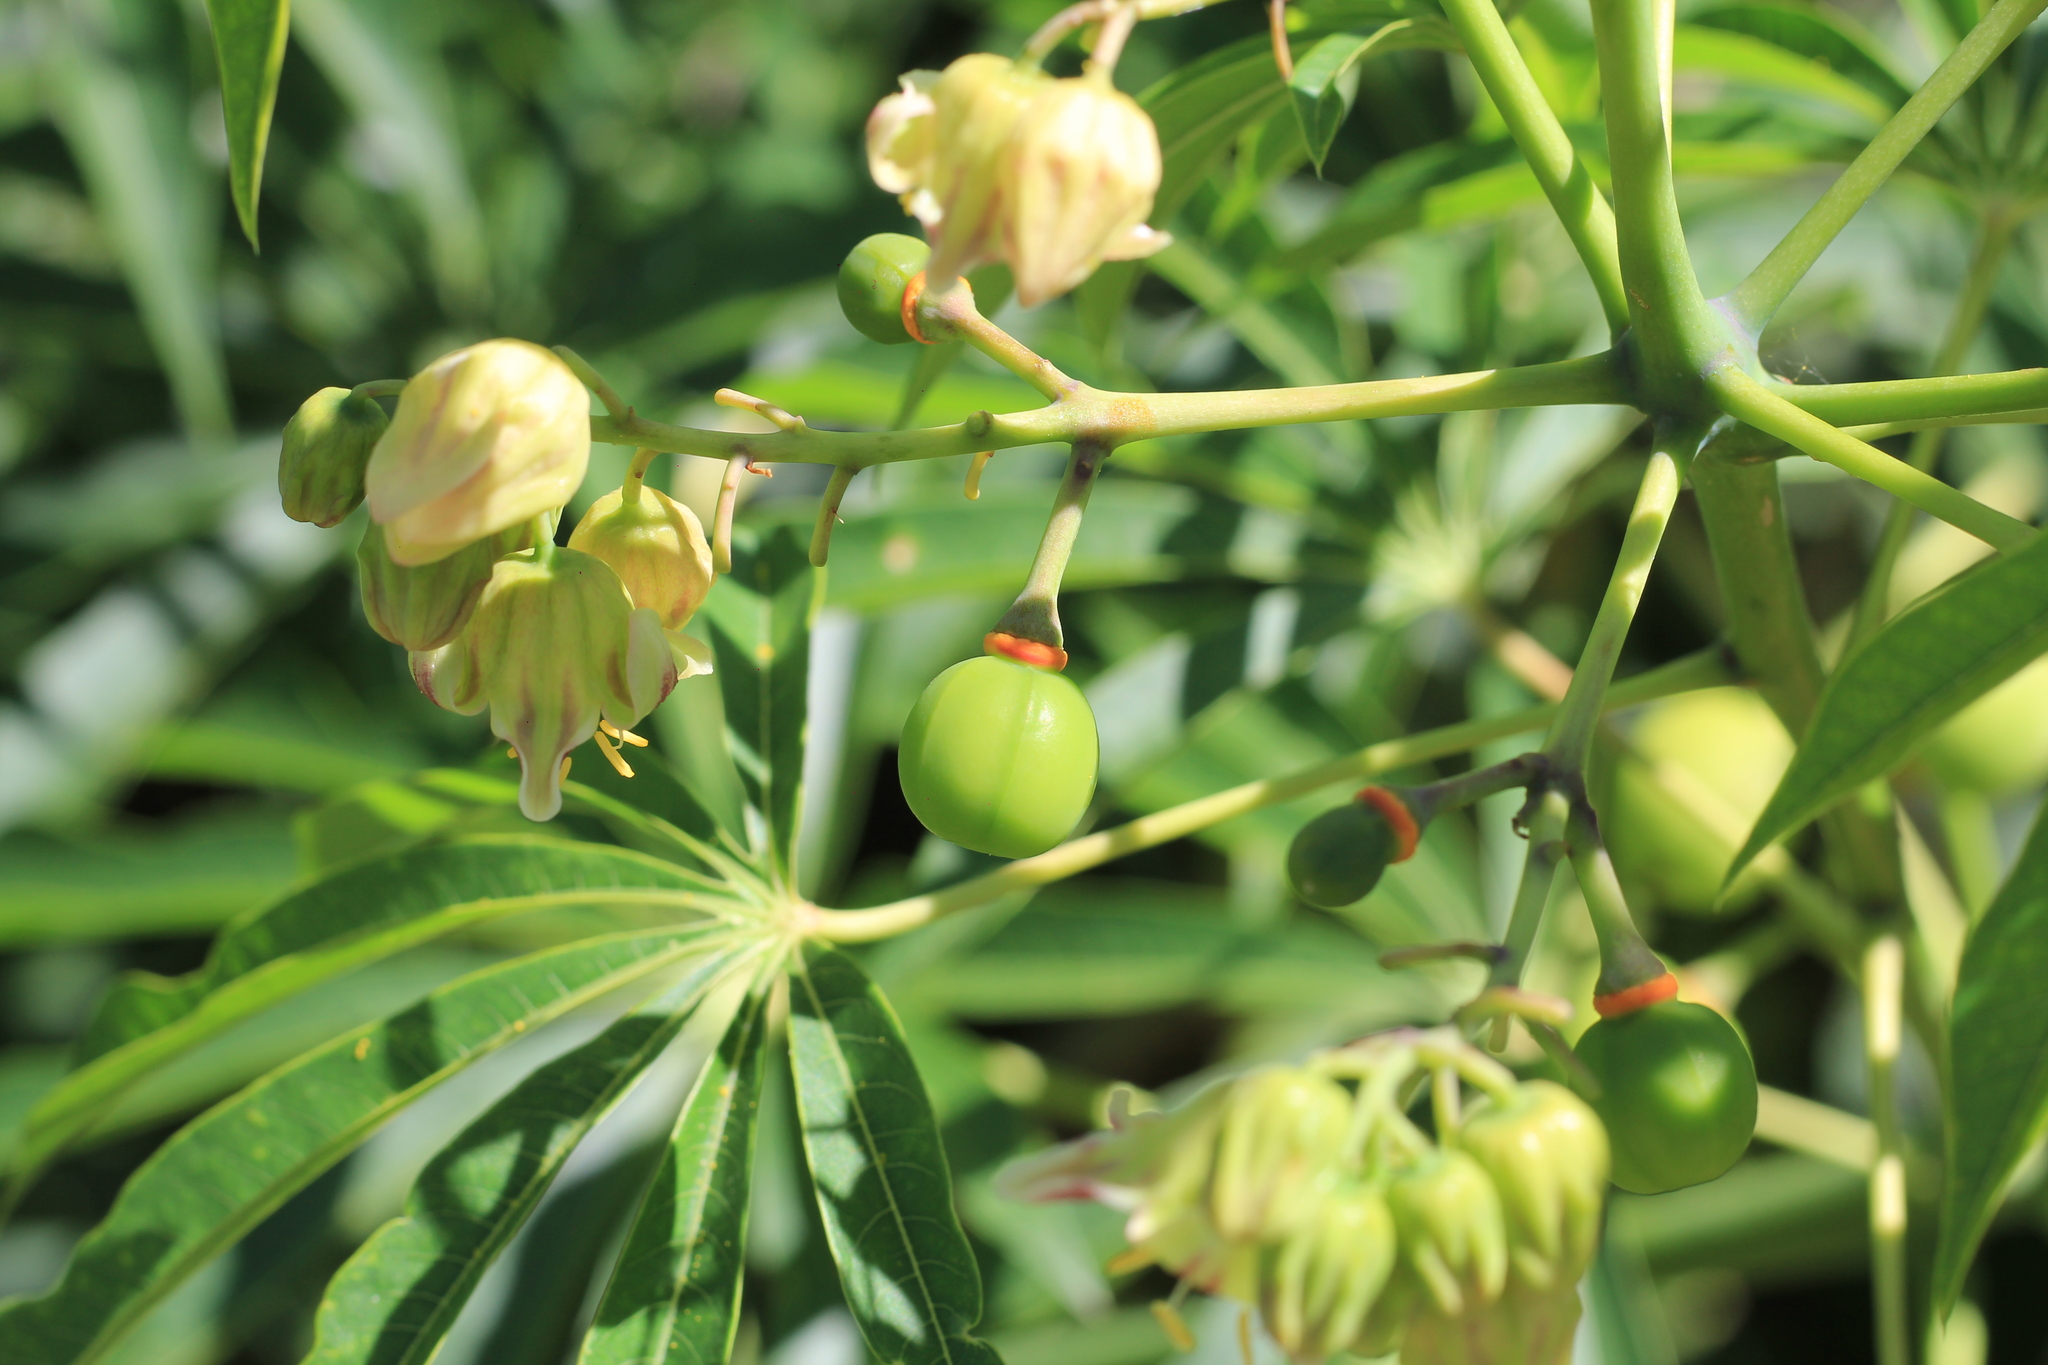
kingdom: Plantae
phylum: Tracheophyta
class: Magnoliopsida
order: Malpighiales
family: Euphorbiaceae
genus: Manihot
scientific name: Manihot grahamii
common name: Graham's manihot
